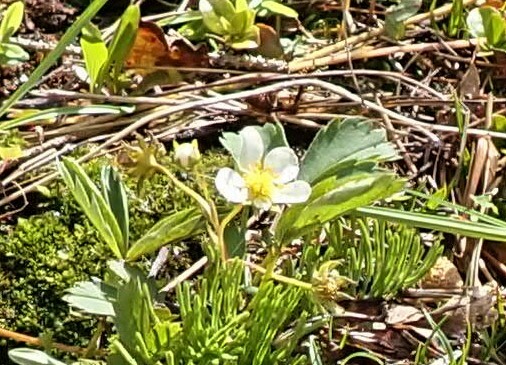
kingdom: Plantae
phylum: Tracheophyta
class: Magnoliopsida
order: Rosales
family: Rosaceae
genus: Fragaria
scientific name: Fragaria virginiana
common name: Thickleaved wild strawberry
